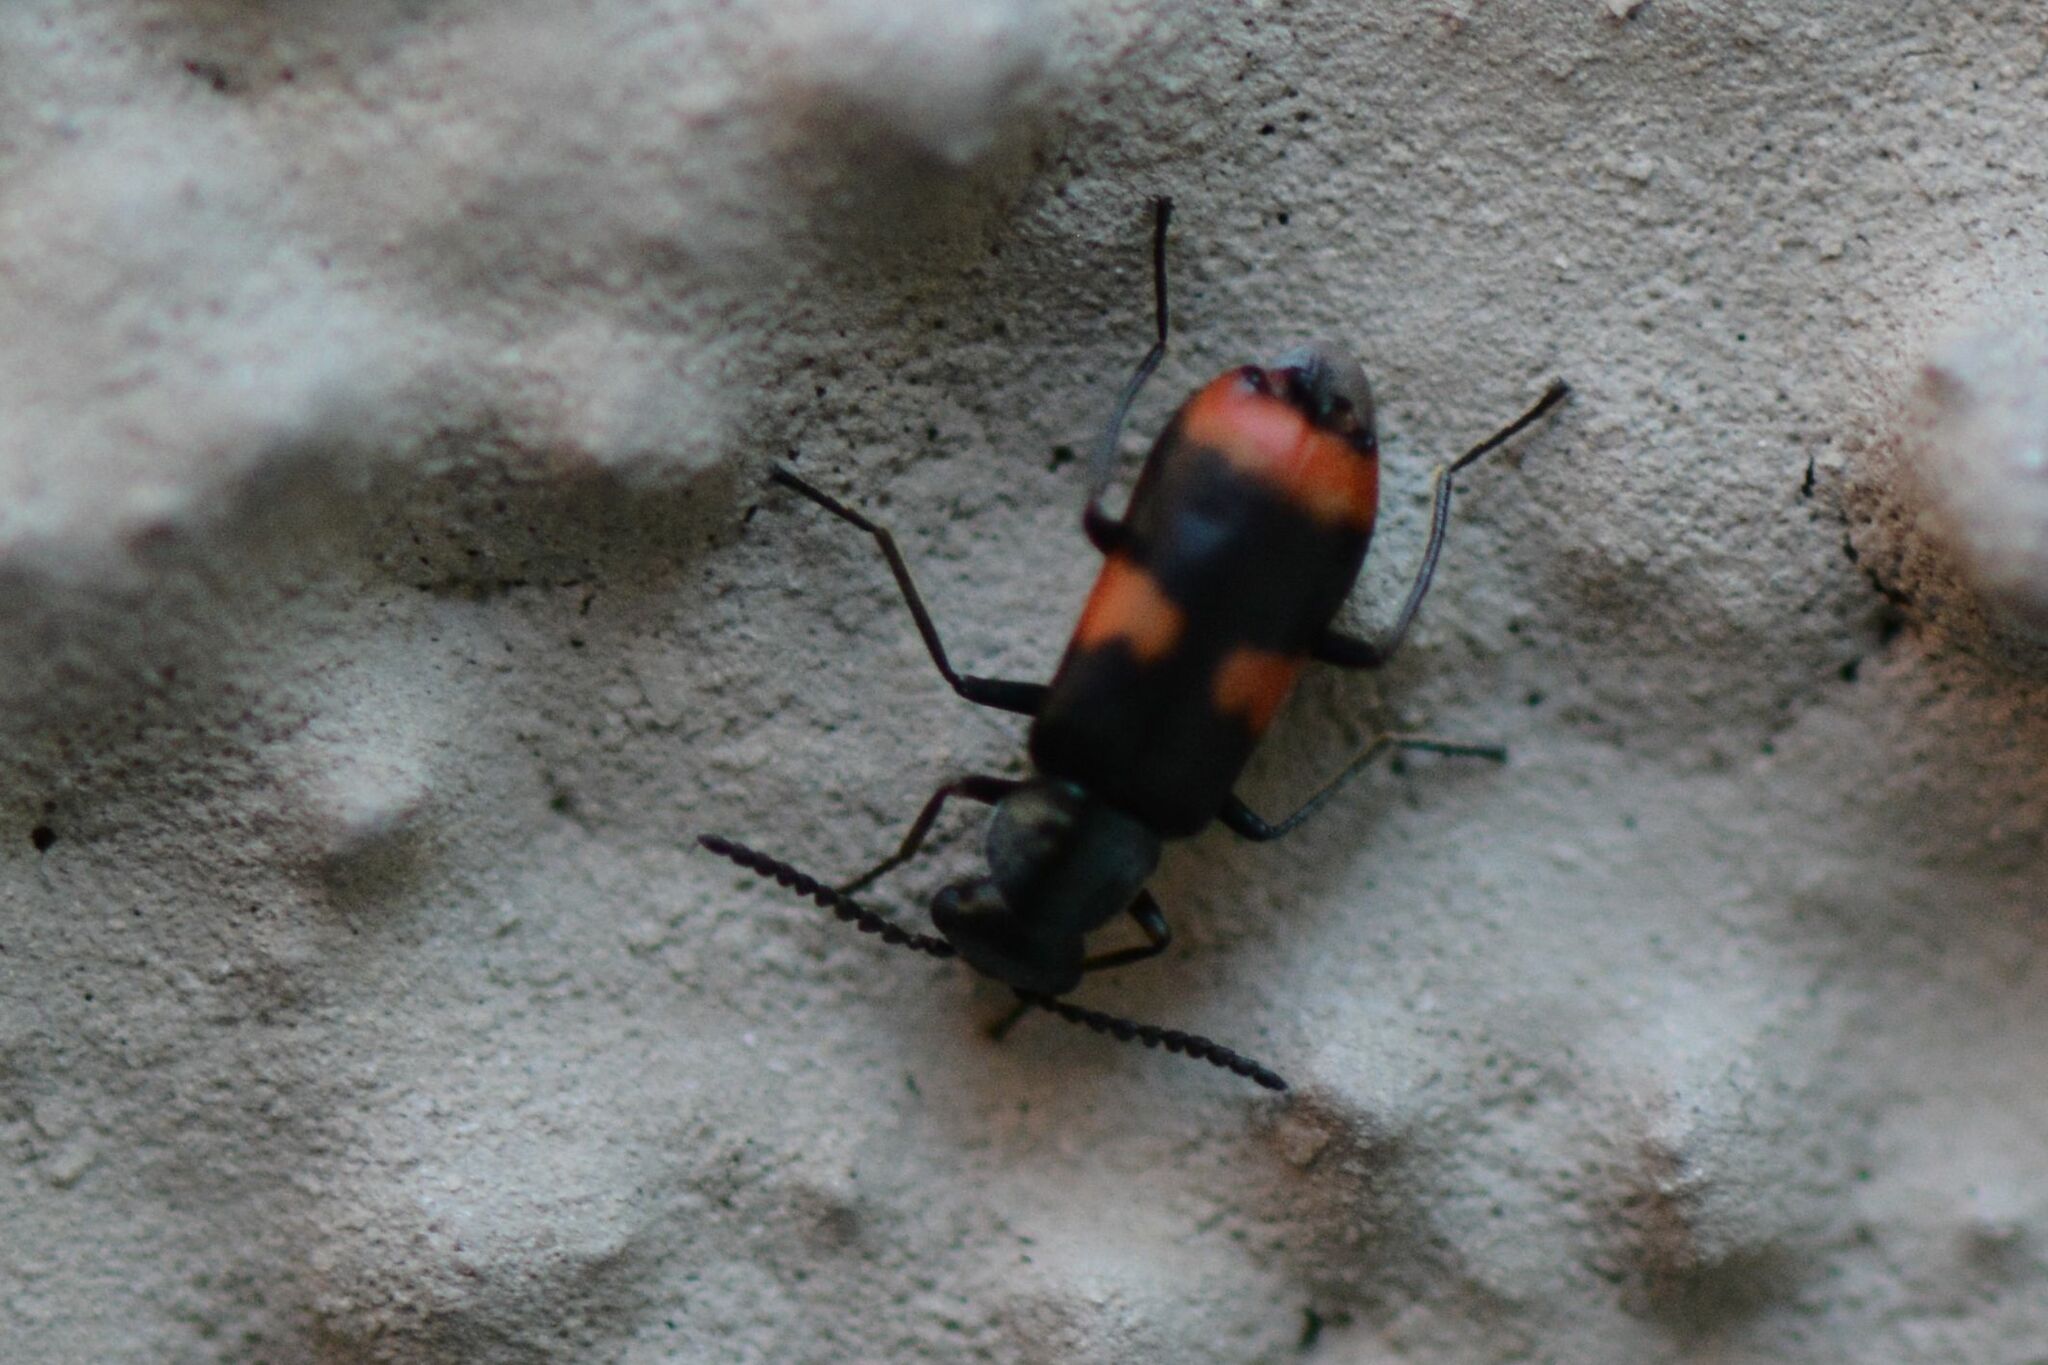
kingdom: Animalia
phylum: Arthropoda
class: Insecta
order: Coleoptera
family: Melyridae
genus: Anthocomus
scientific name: Anthocomus fasciatus
